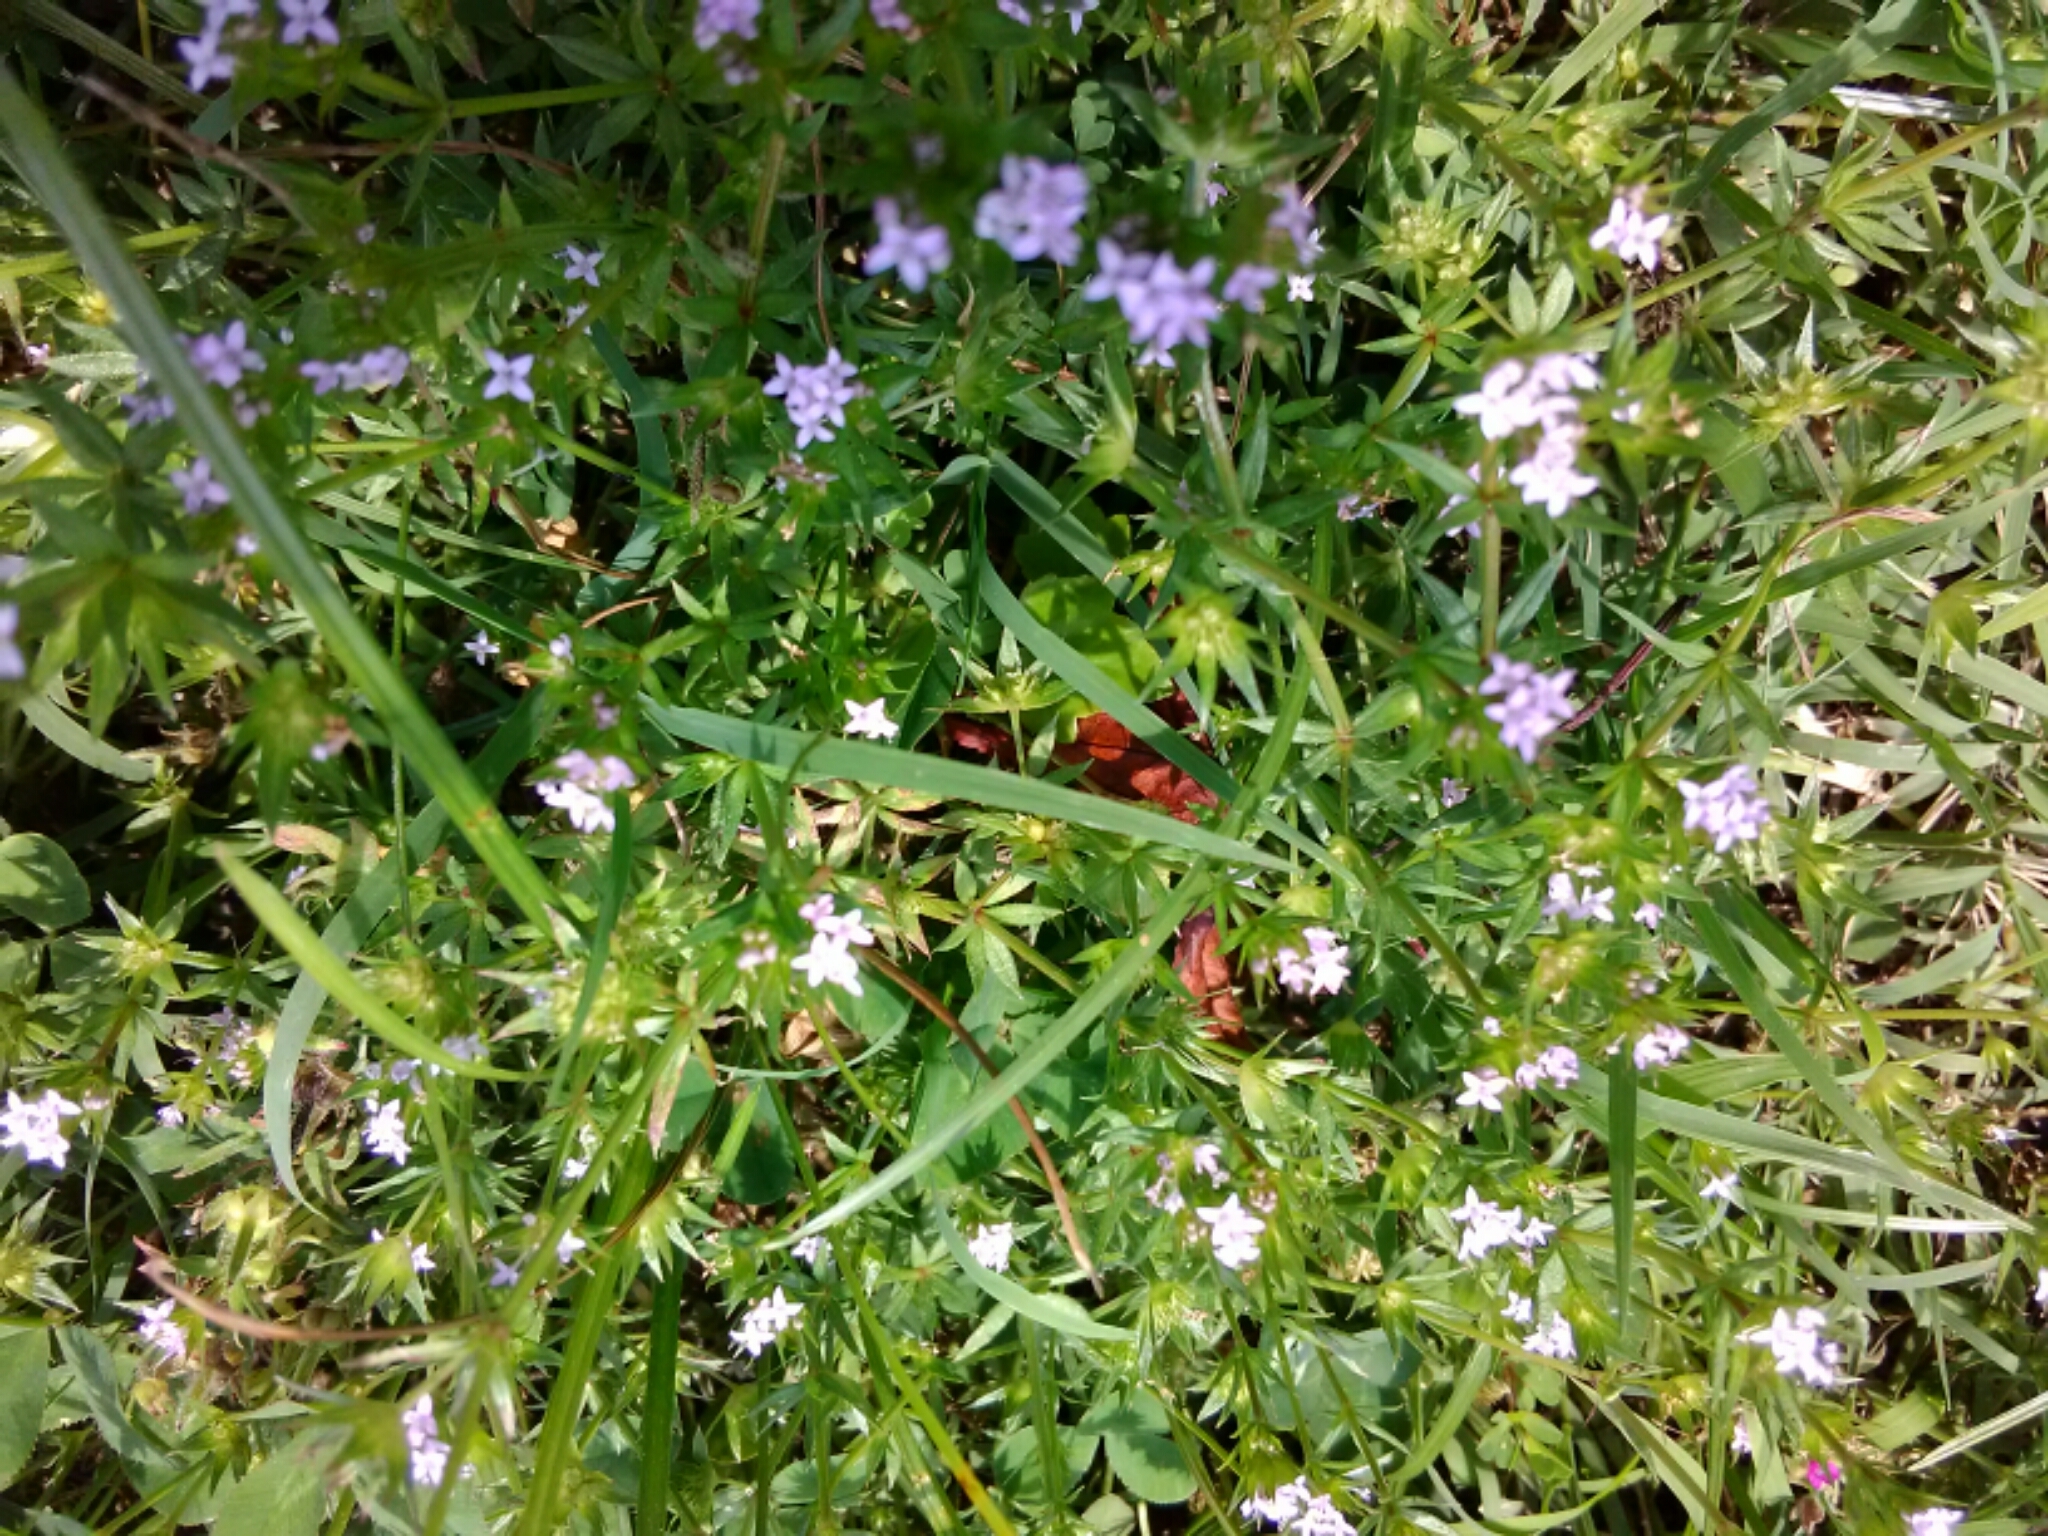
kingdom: Plantae
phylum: Tracheophyta
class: Magnoliopsida
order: Gentianales
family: Rubiaceae
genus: Sherardia
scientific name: Sherardia arvensis
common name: Field madder
